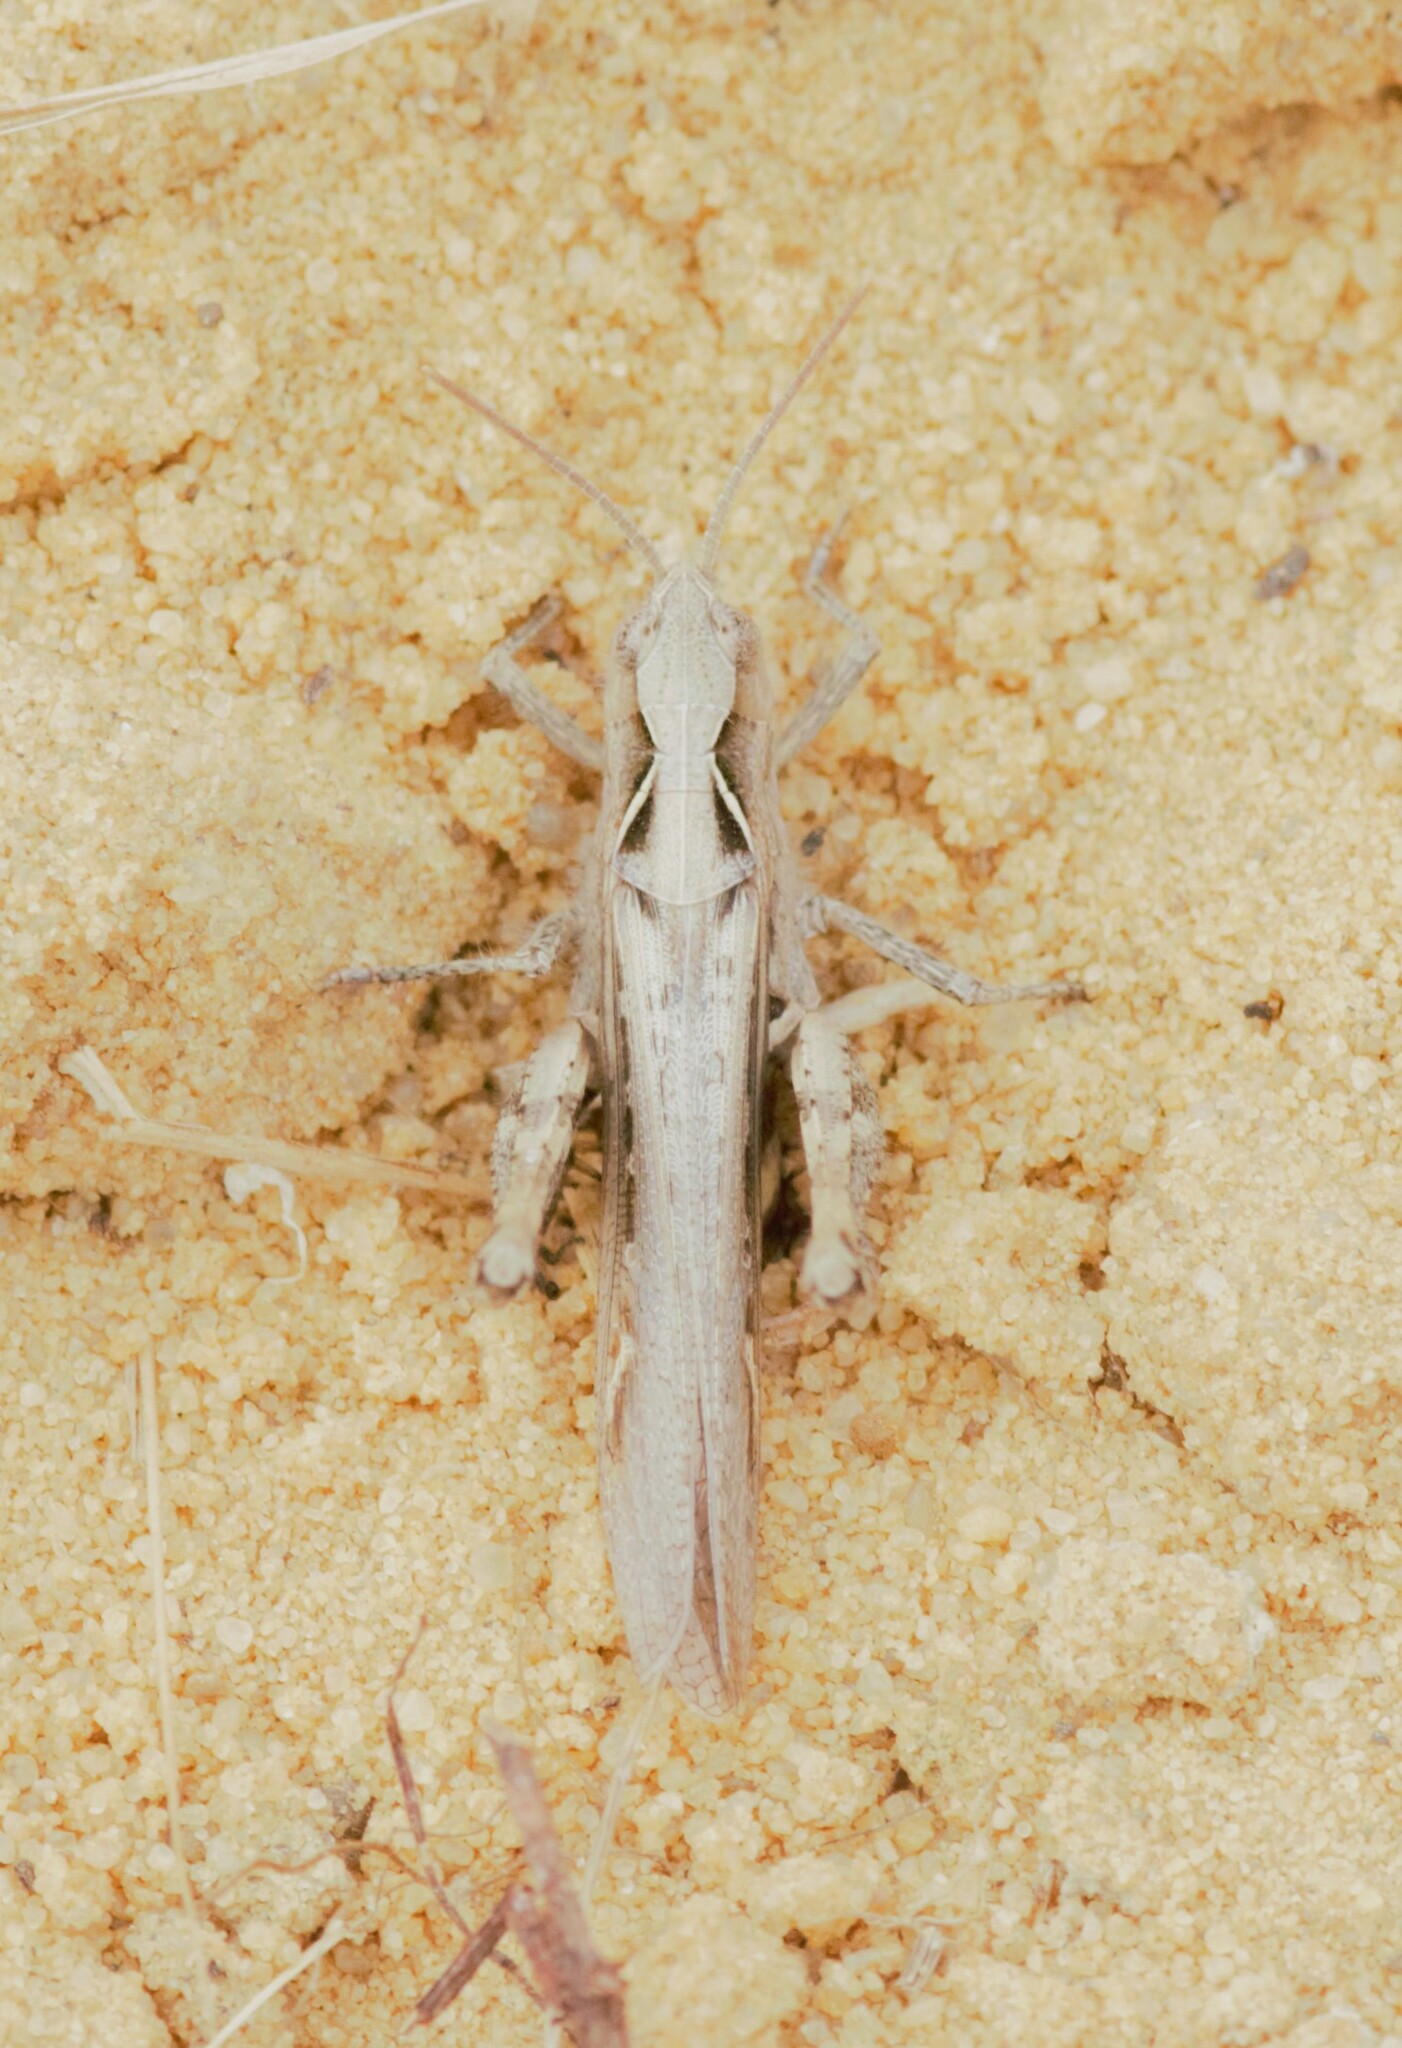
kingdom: Animalia
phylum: Arthropoda
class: Insecta
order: Orthoptera
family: Acrididae
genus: Chorthippus
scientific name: Chorthippus brunneus
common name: Field grasshopper
